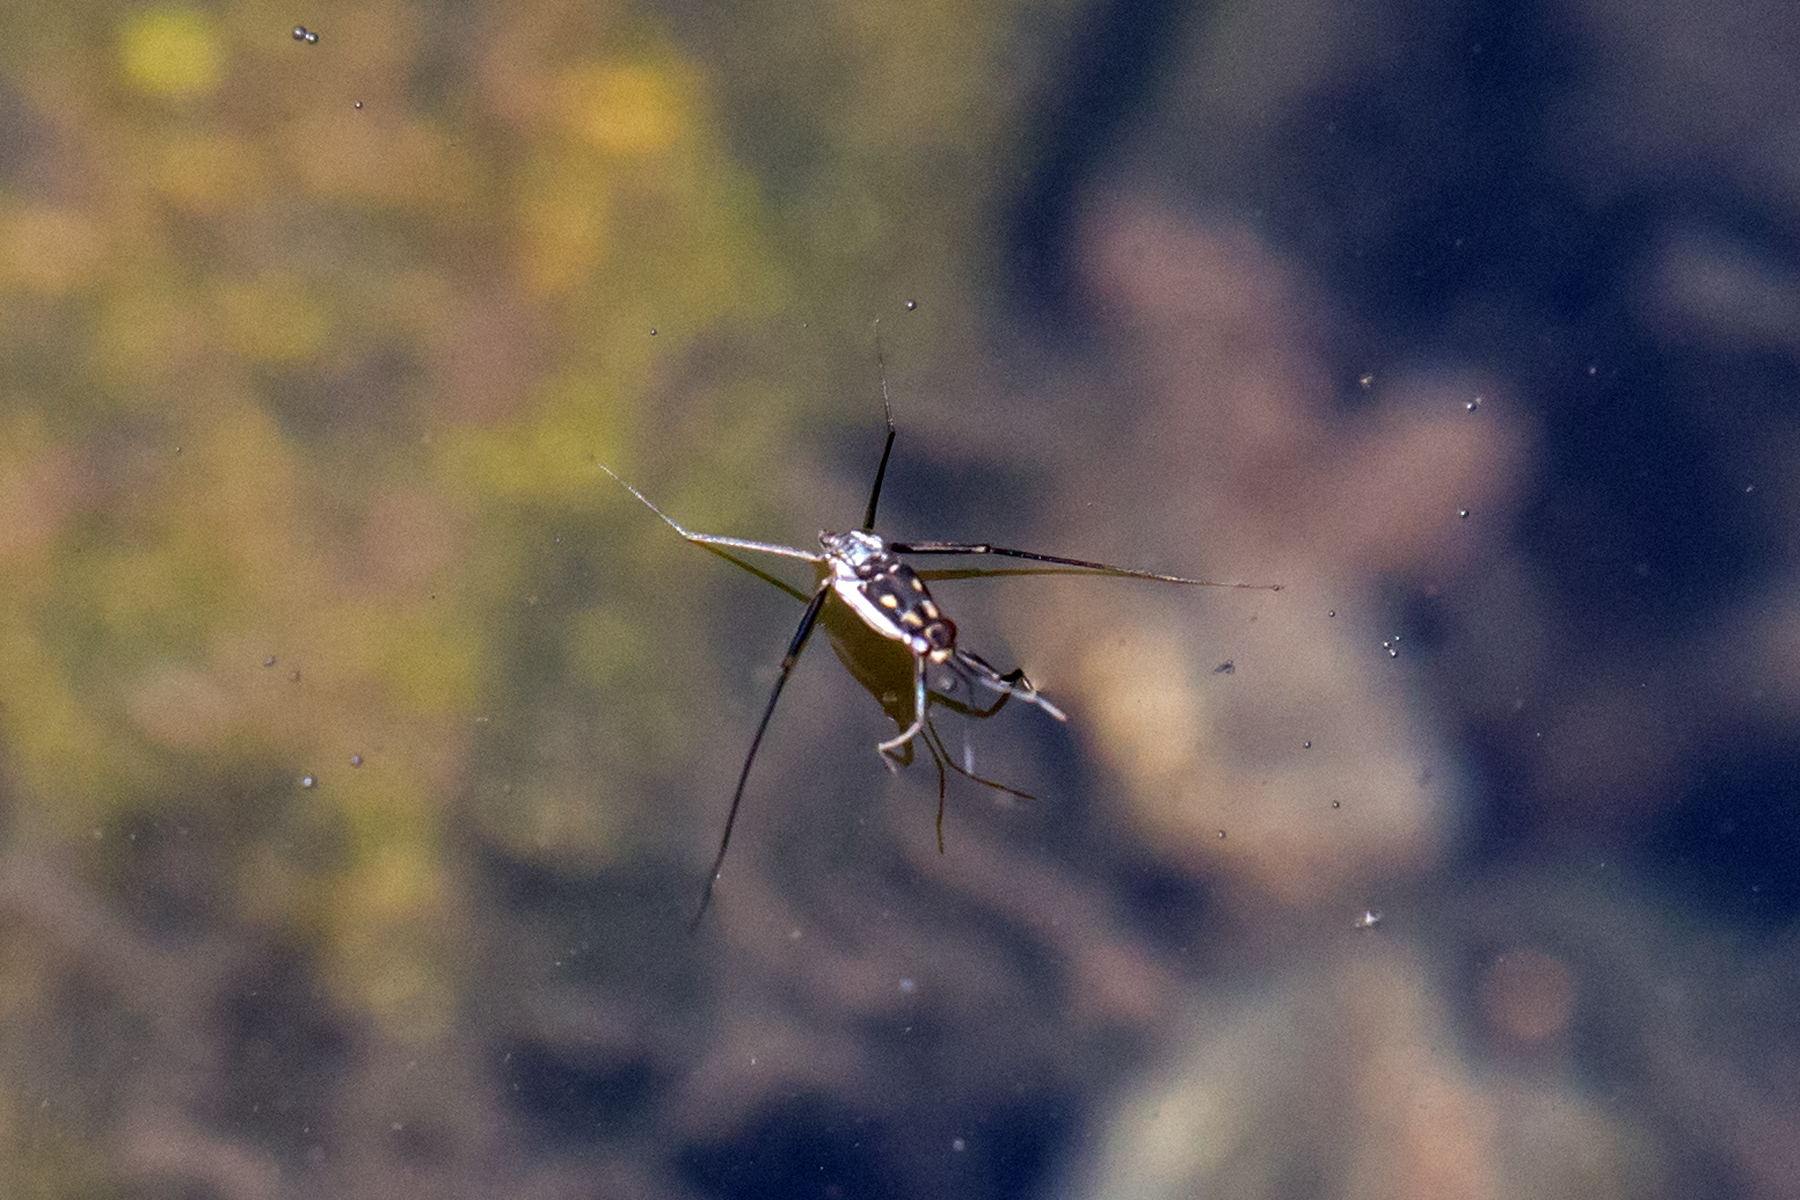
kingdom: Animalia
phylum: Arthropoda
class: Insecta
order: Hemiptera
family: Gerridae
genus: Trepobates
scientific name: Trepobates subnitidus
